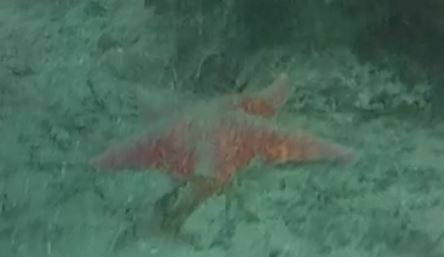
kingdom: Animalia
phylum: Echinodermata
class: Asteroidea
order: Valvatida
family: Asterinidae
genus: Patiria
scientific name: Patiria miniata
